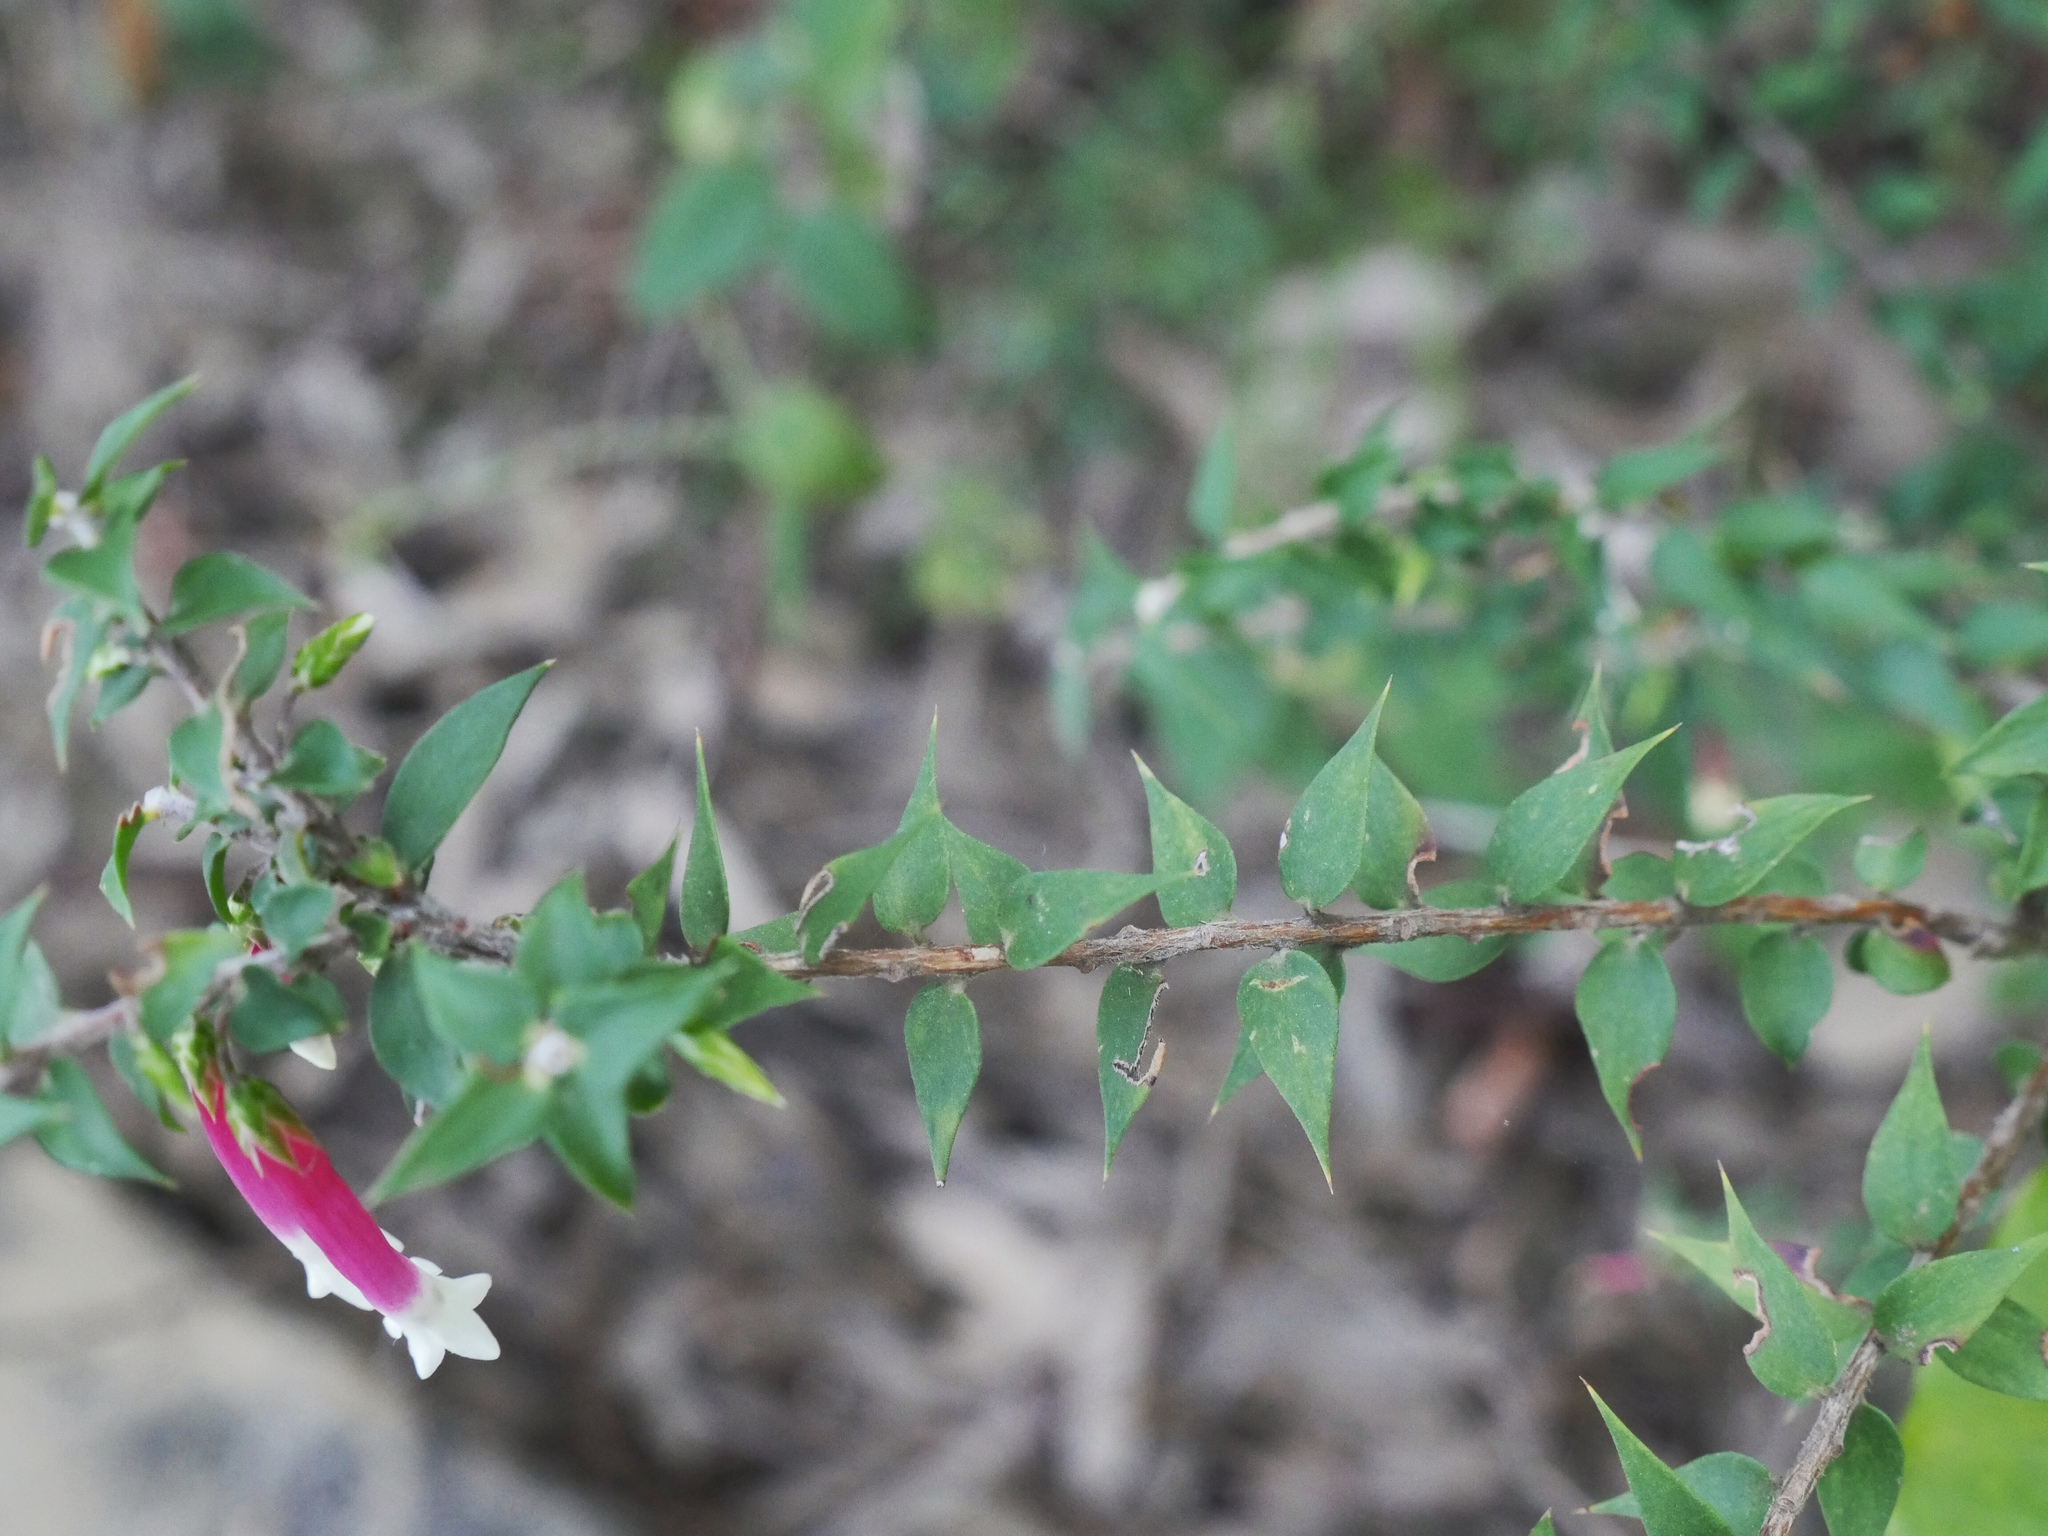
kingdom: Plantae
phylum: Tracheophyta
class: Magnoliopsida
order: Ericales
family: Ericaceae
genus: Epacris
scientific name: Epacris longiflora
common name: Fuchsia-heath
